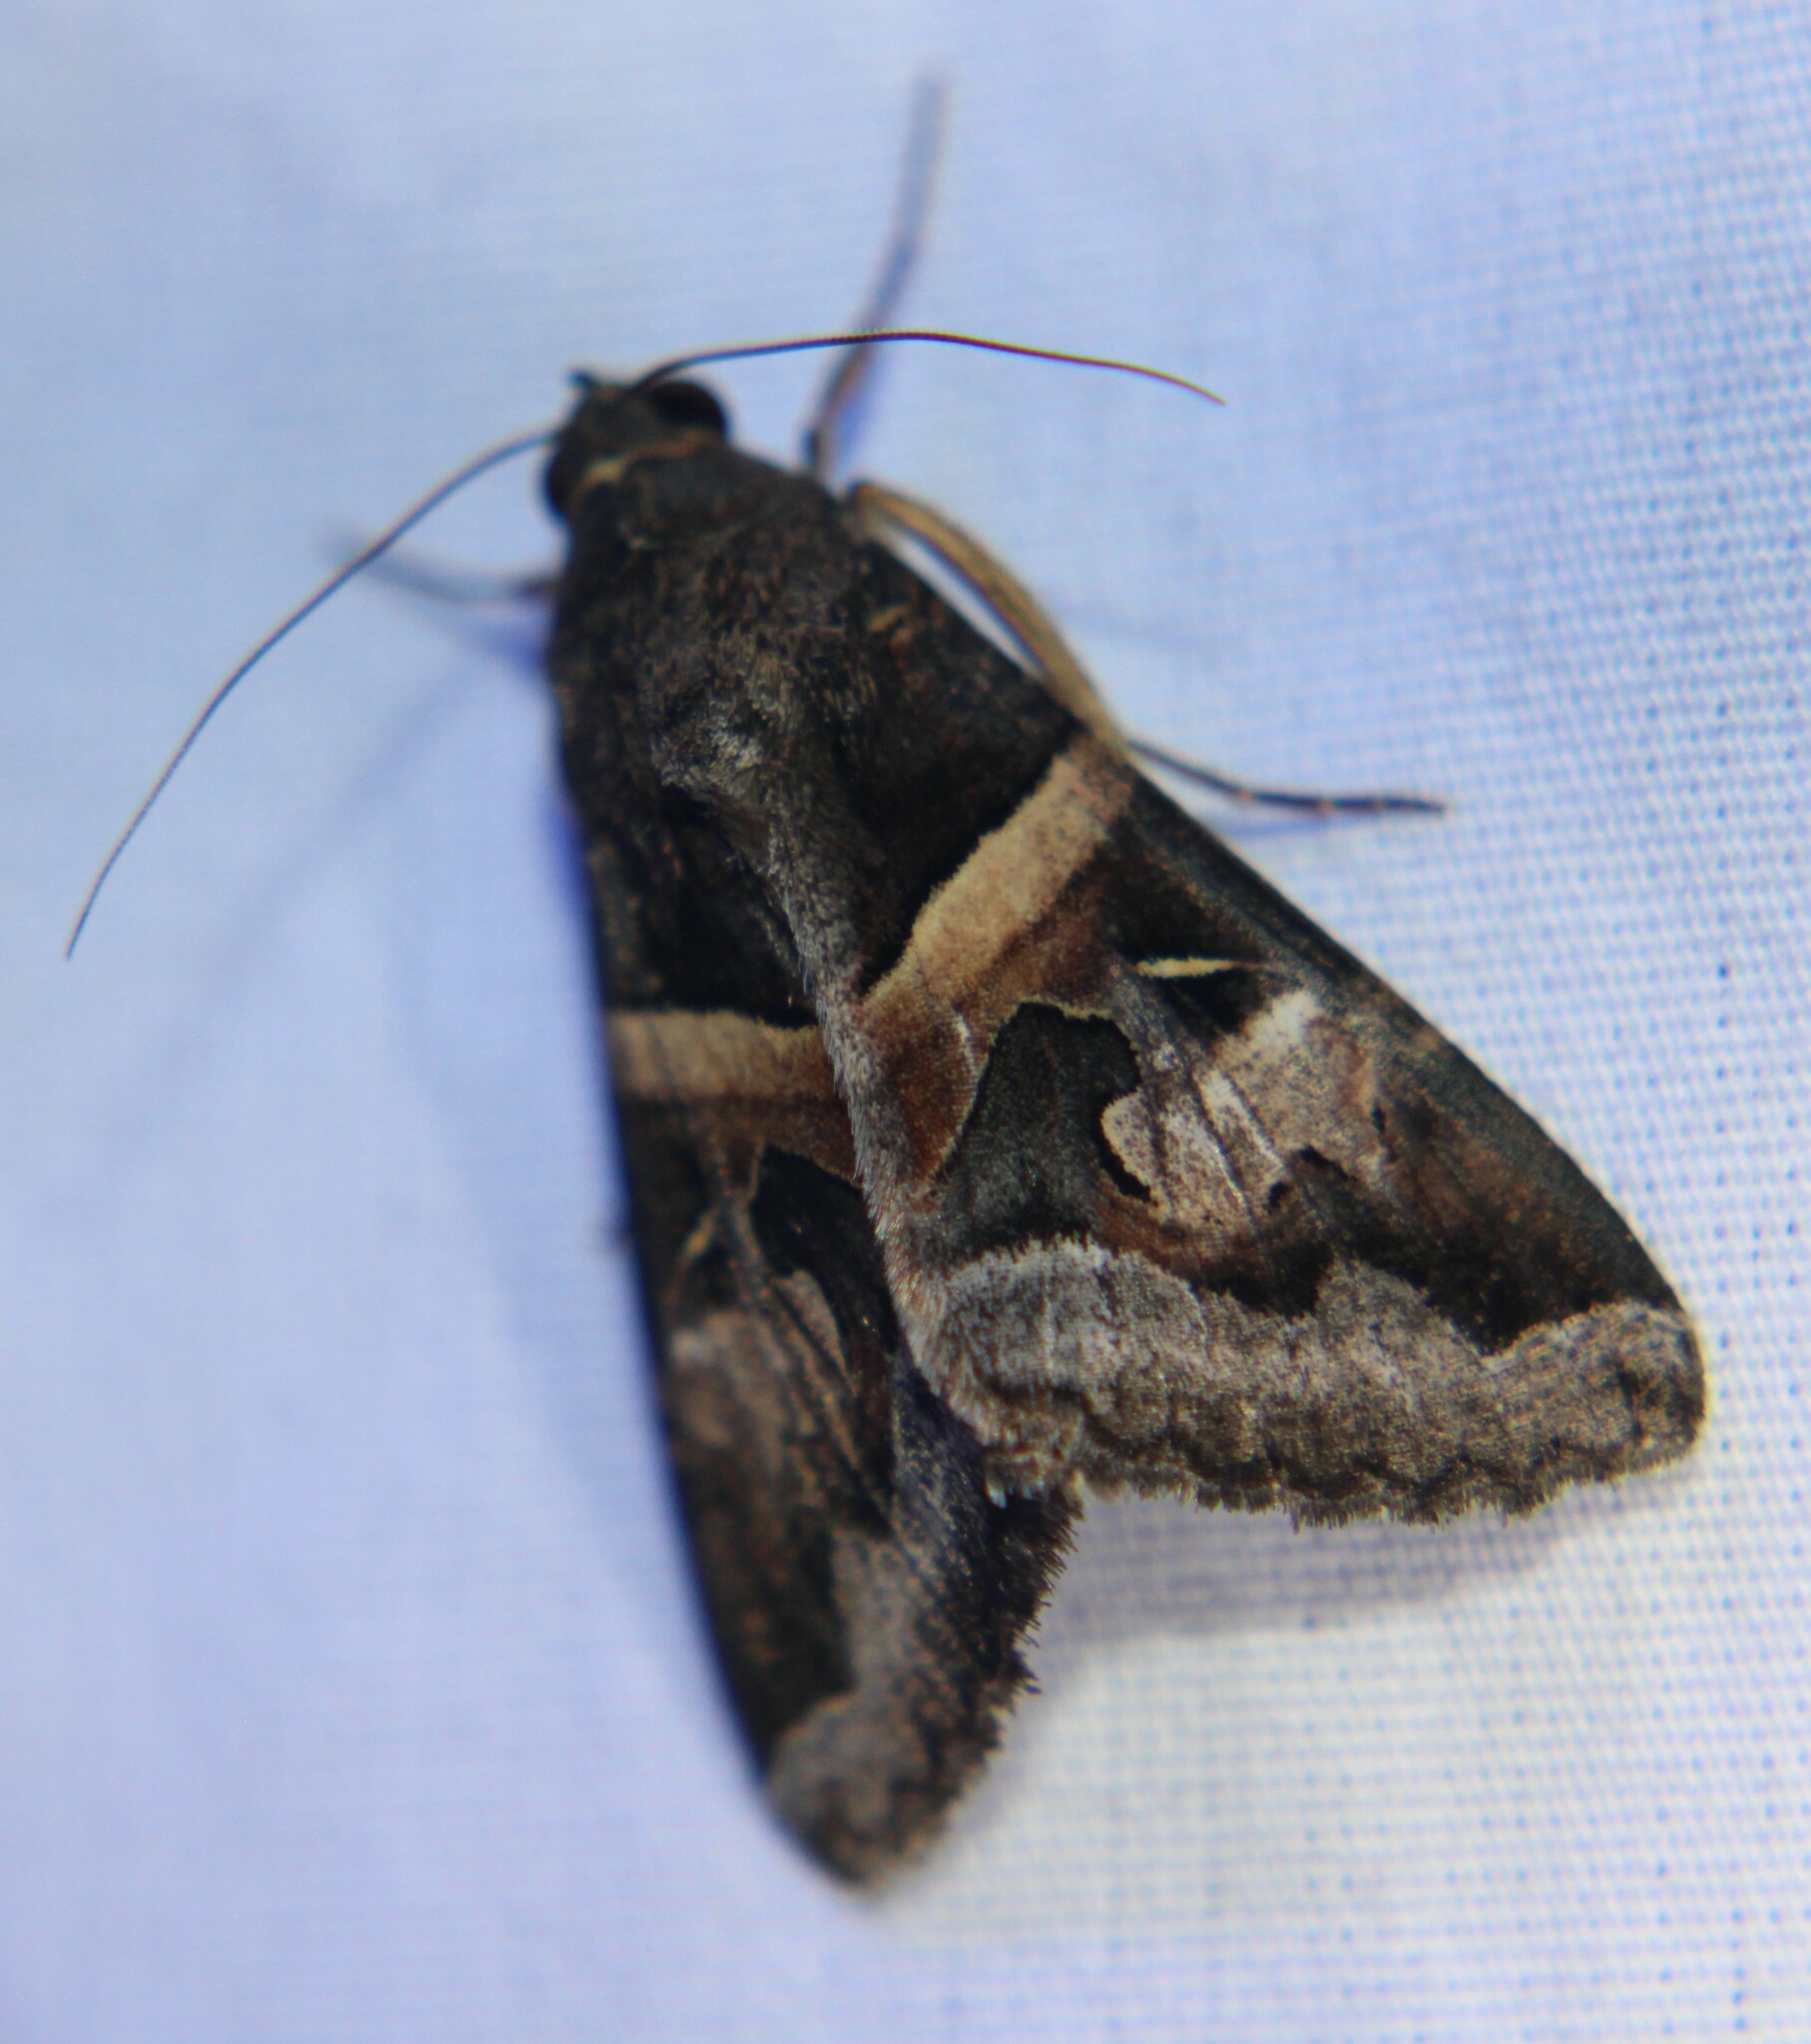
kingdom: Animalia
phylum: Arthropoda
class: Insecta
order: Lepidoptera
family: Erebidae
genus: Melipotis
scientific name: Melipotis indomita
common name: Moth
